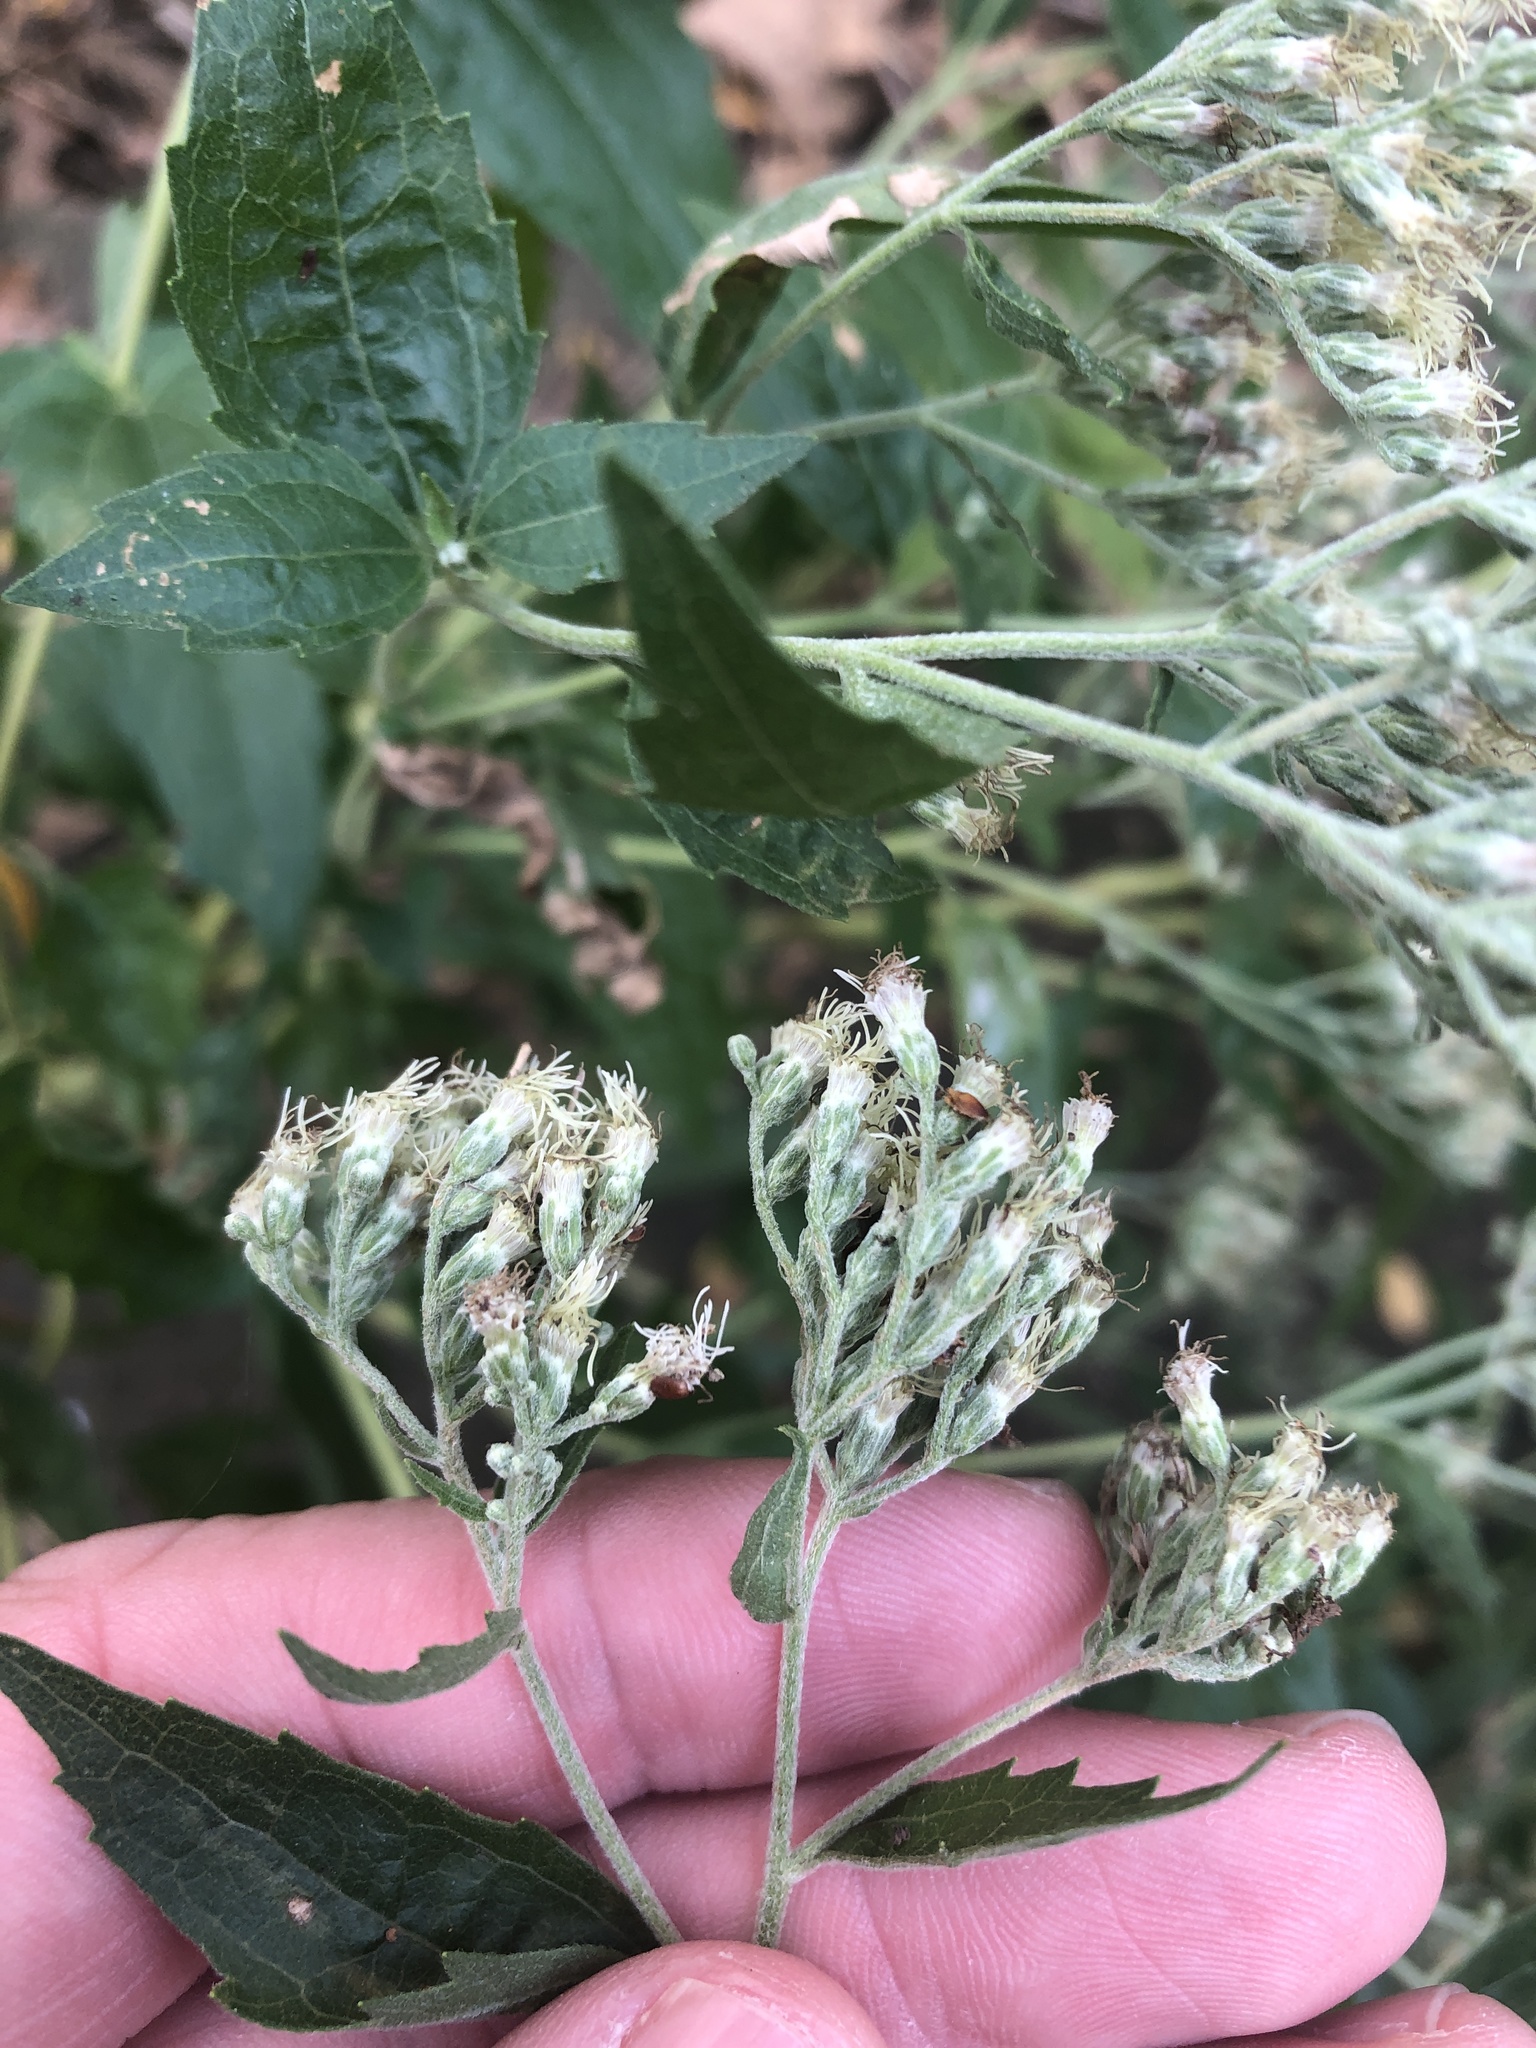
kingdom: Plantae
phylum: Tracheophyta
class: Magnoliopsida
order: Asterales
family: Asteraceae
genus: Eupatorium
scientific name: Eupatorium serotinum
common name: Late boneset
